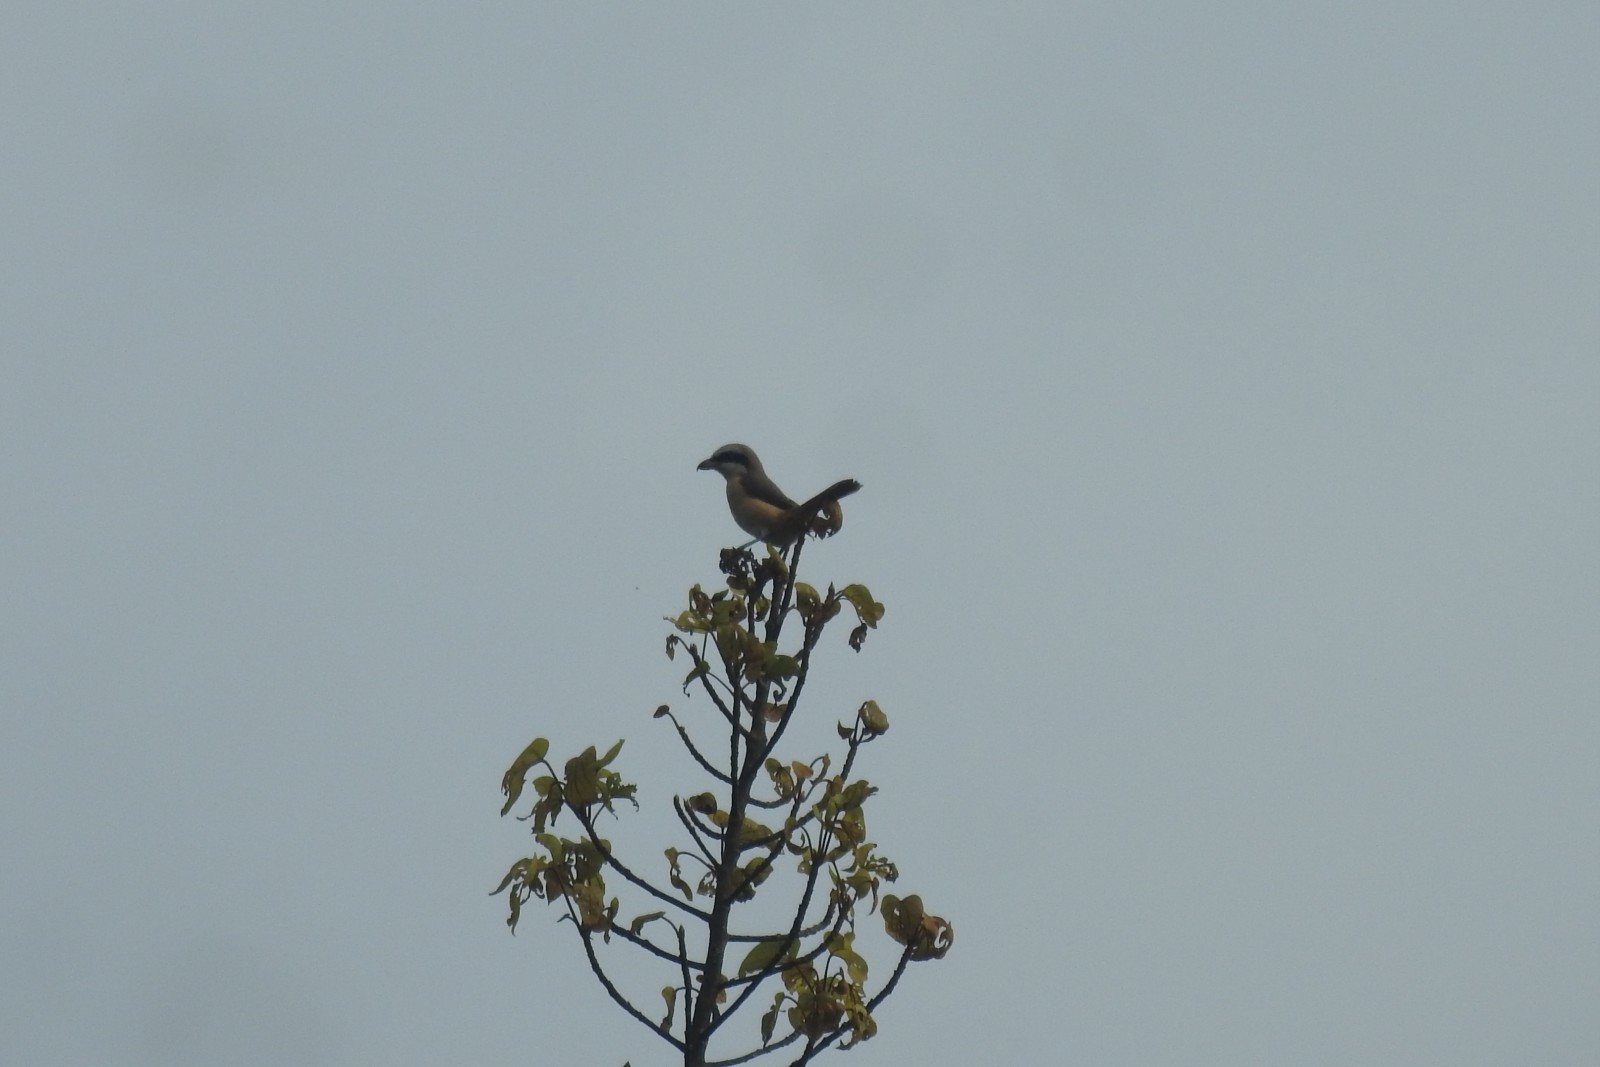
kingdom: Animalia
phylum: Chordata
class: Aves
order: Passeriformes
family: Laniidae
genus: Lanius
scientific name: Lanius cristatus
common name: Brown shrike
